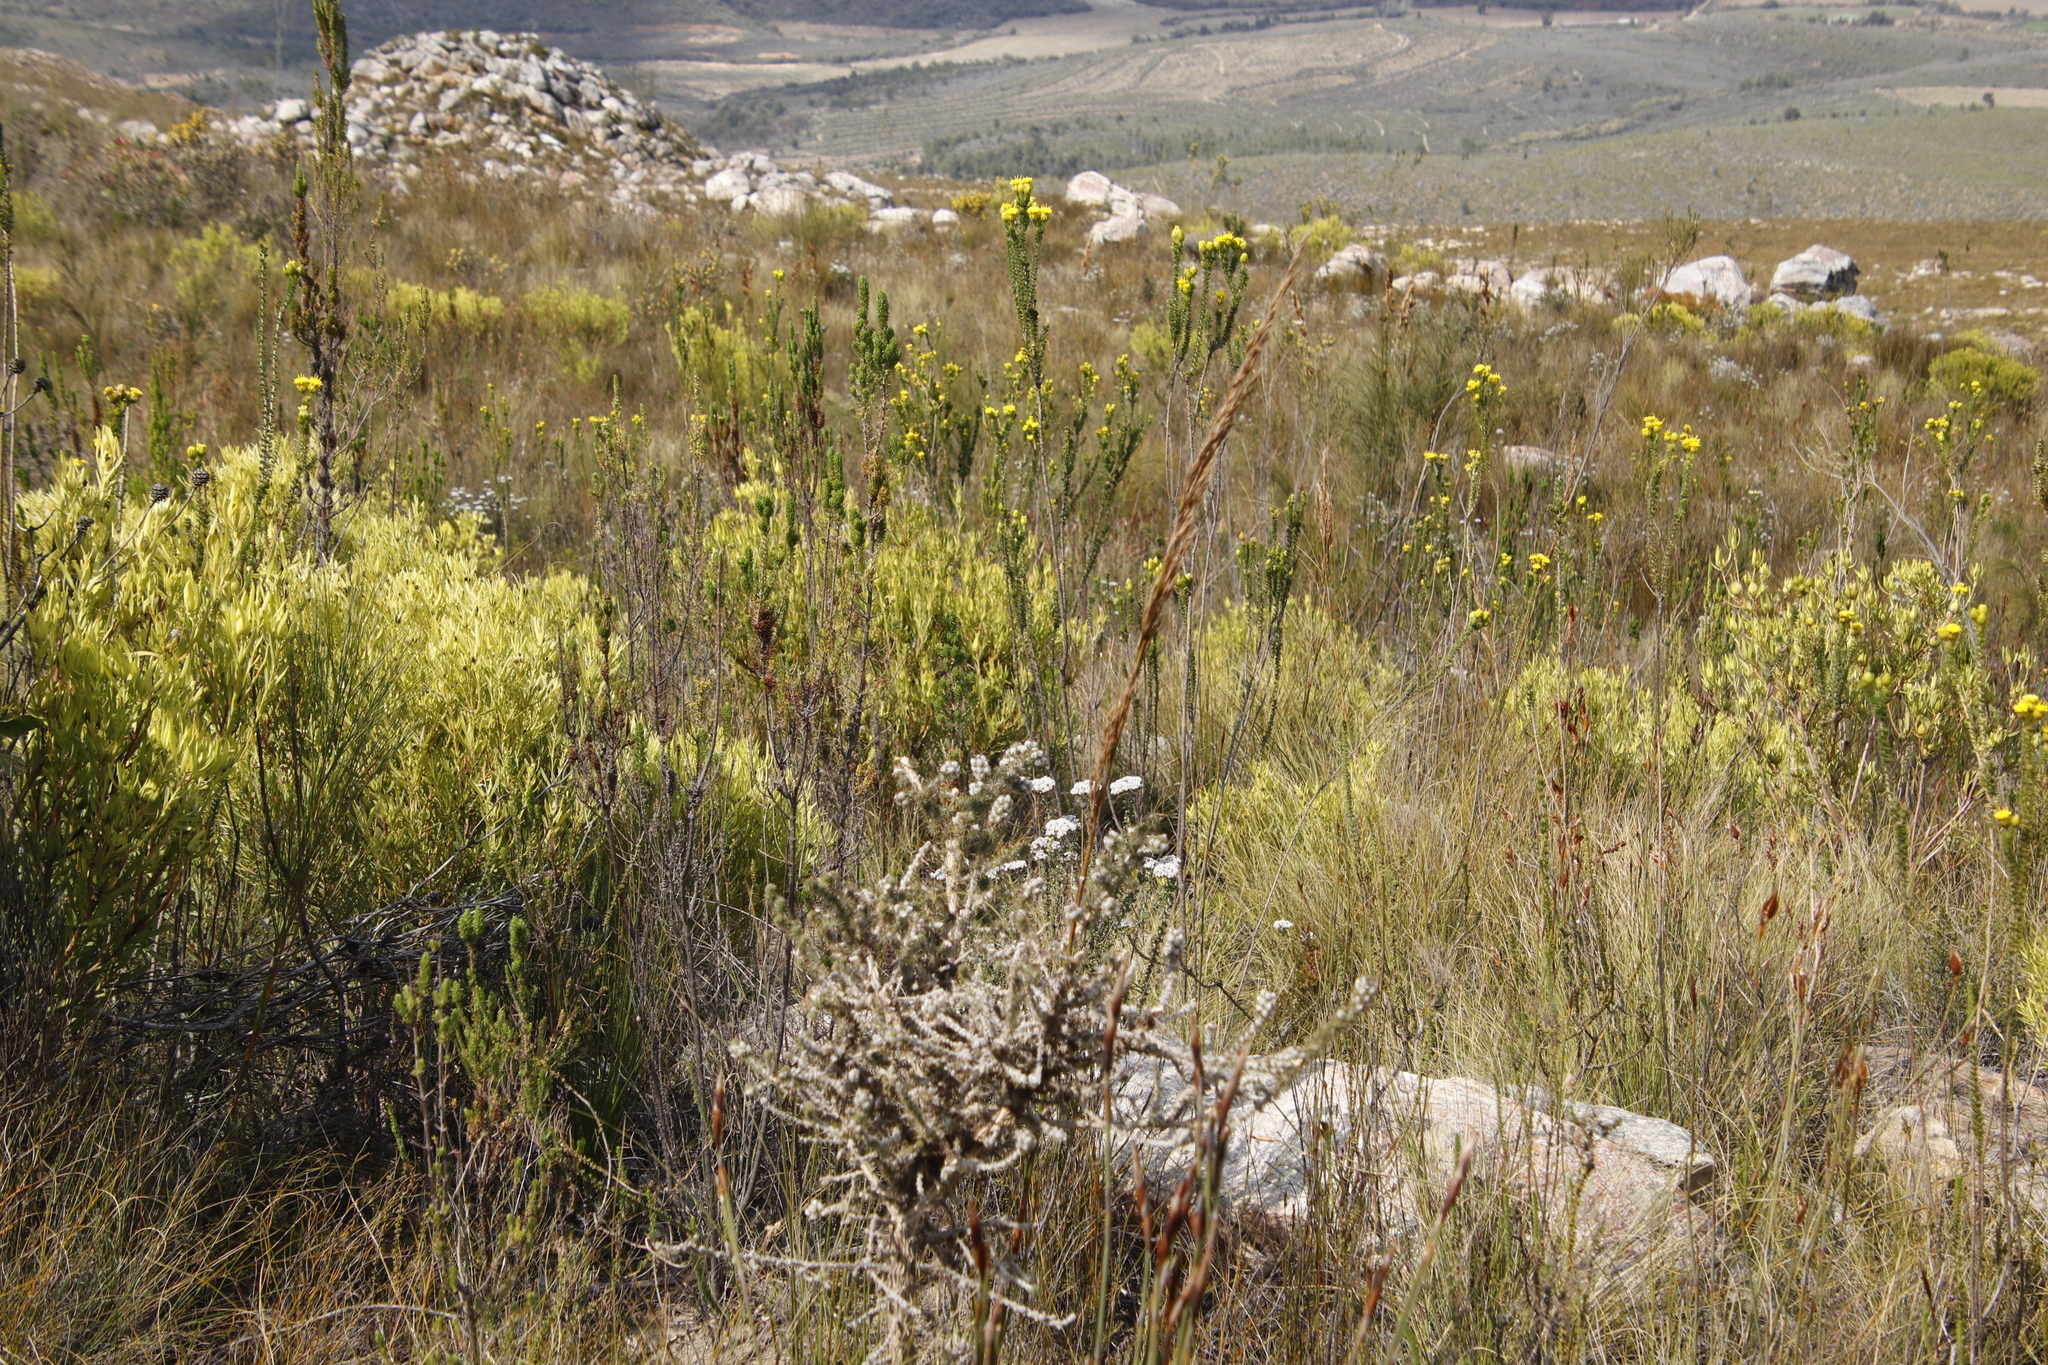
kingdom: Plantae
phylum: Tracheophyta
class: Magnoliopsida
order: Asterales
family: Asteraceae
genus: Pteronia
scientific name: Pteronia camphorata
